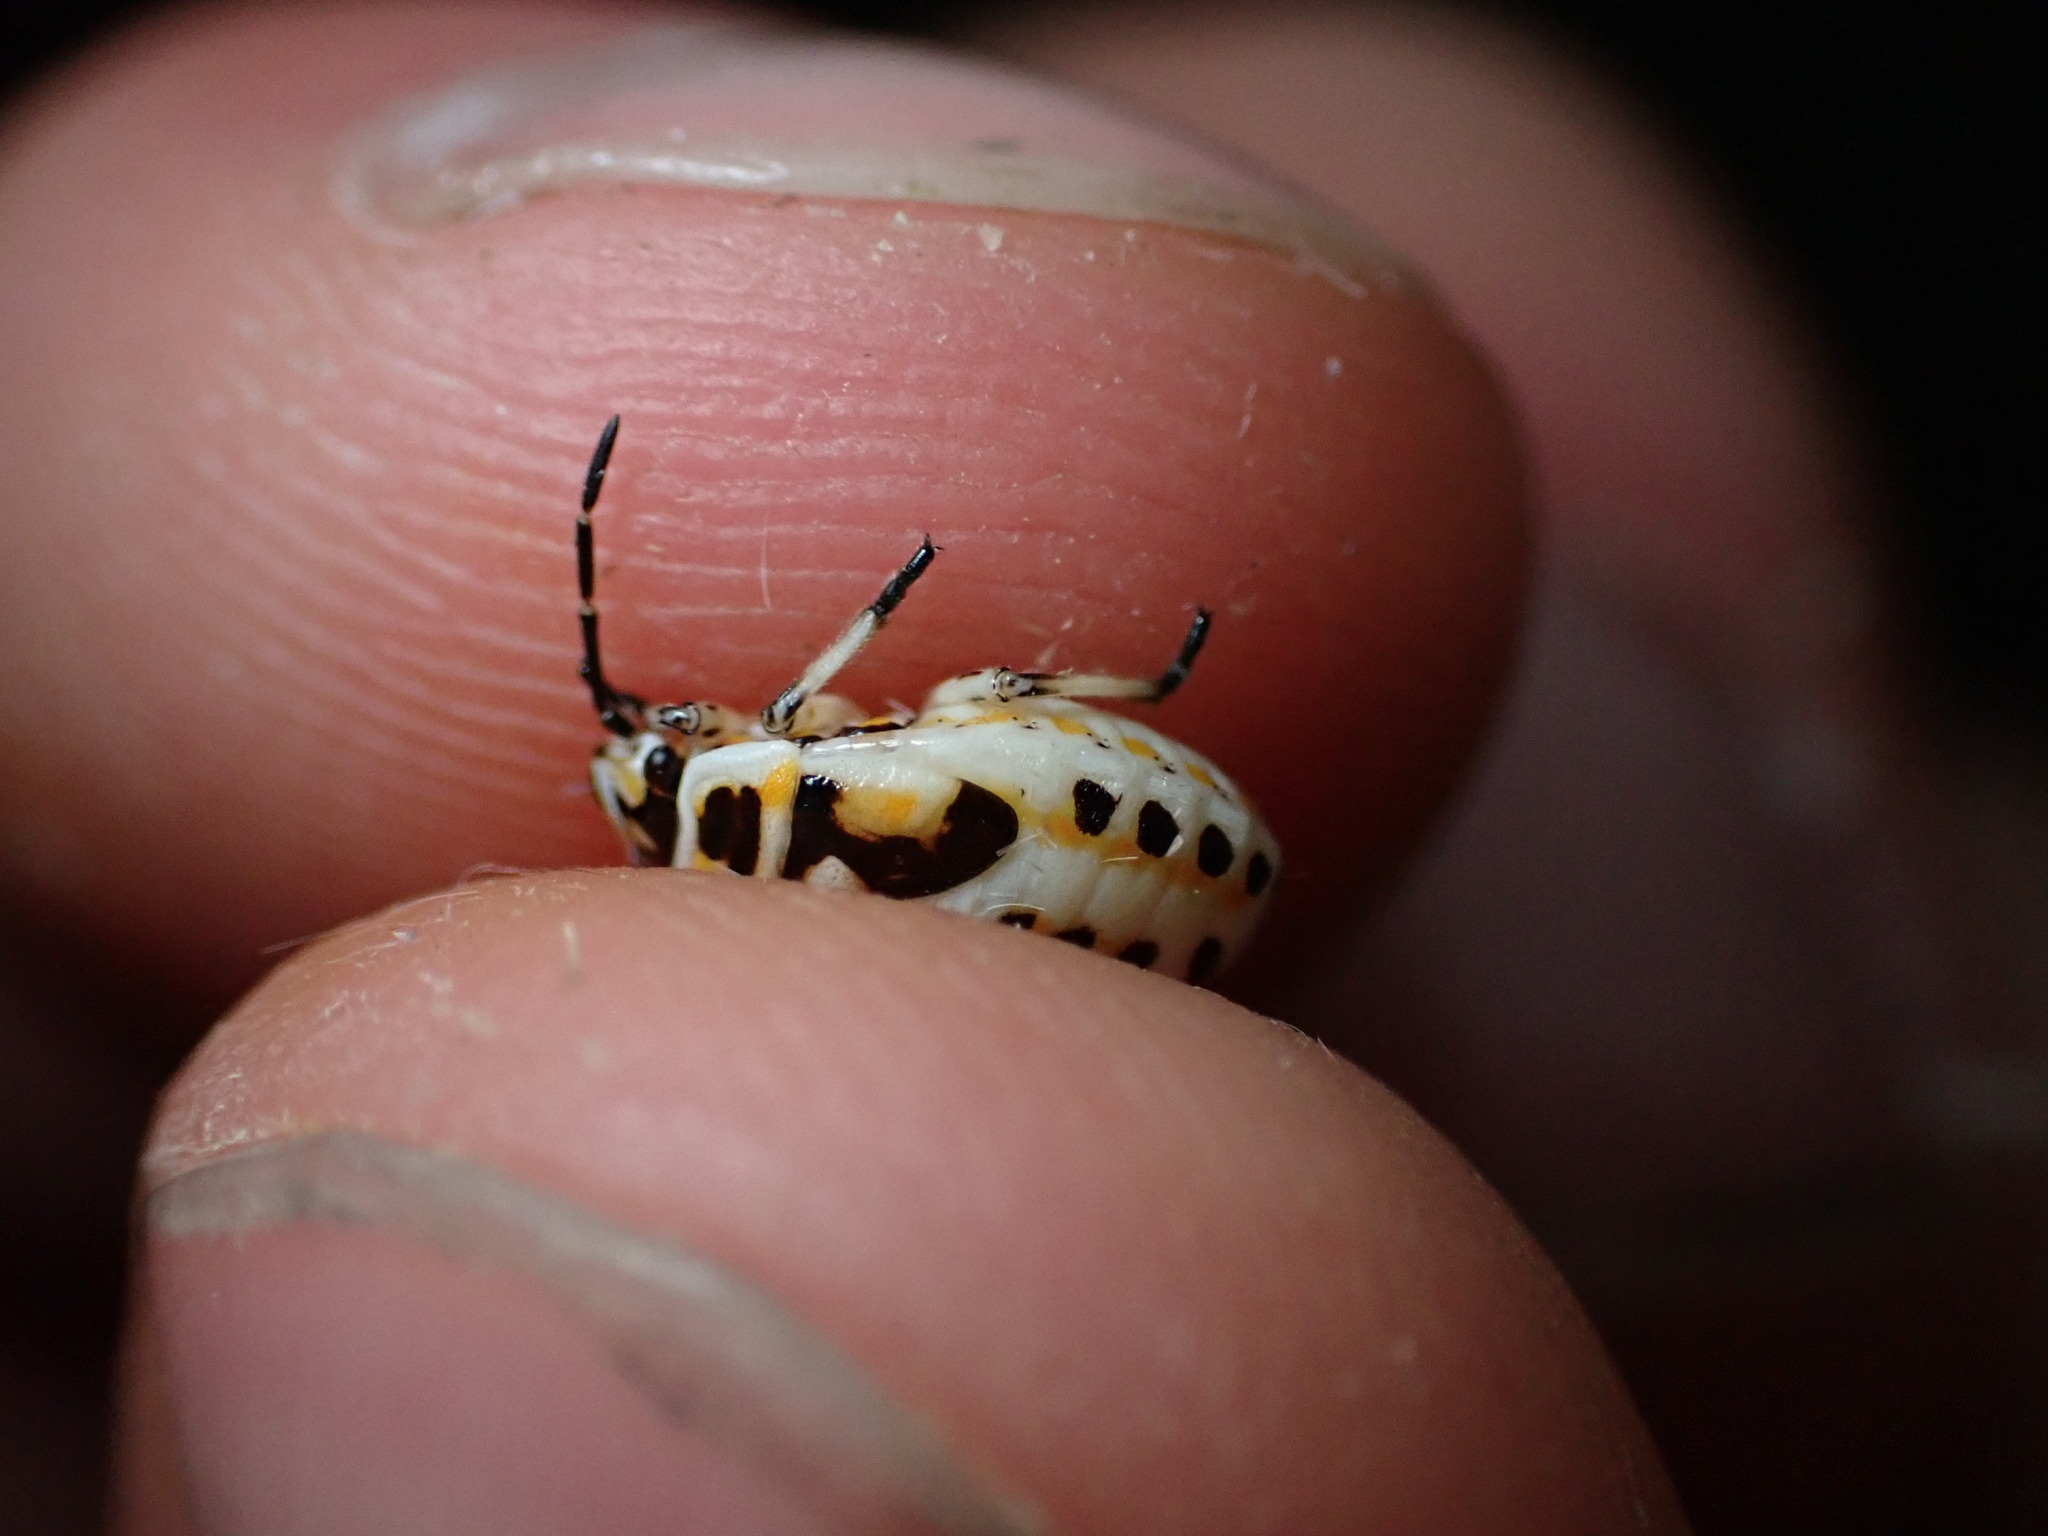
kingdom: Animalia
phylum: Arthropoda
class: Insecta
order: Hemiptera
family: Pentatomidae
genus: Eurydema
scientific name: Eurydema ornata
